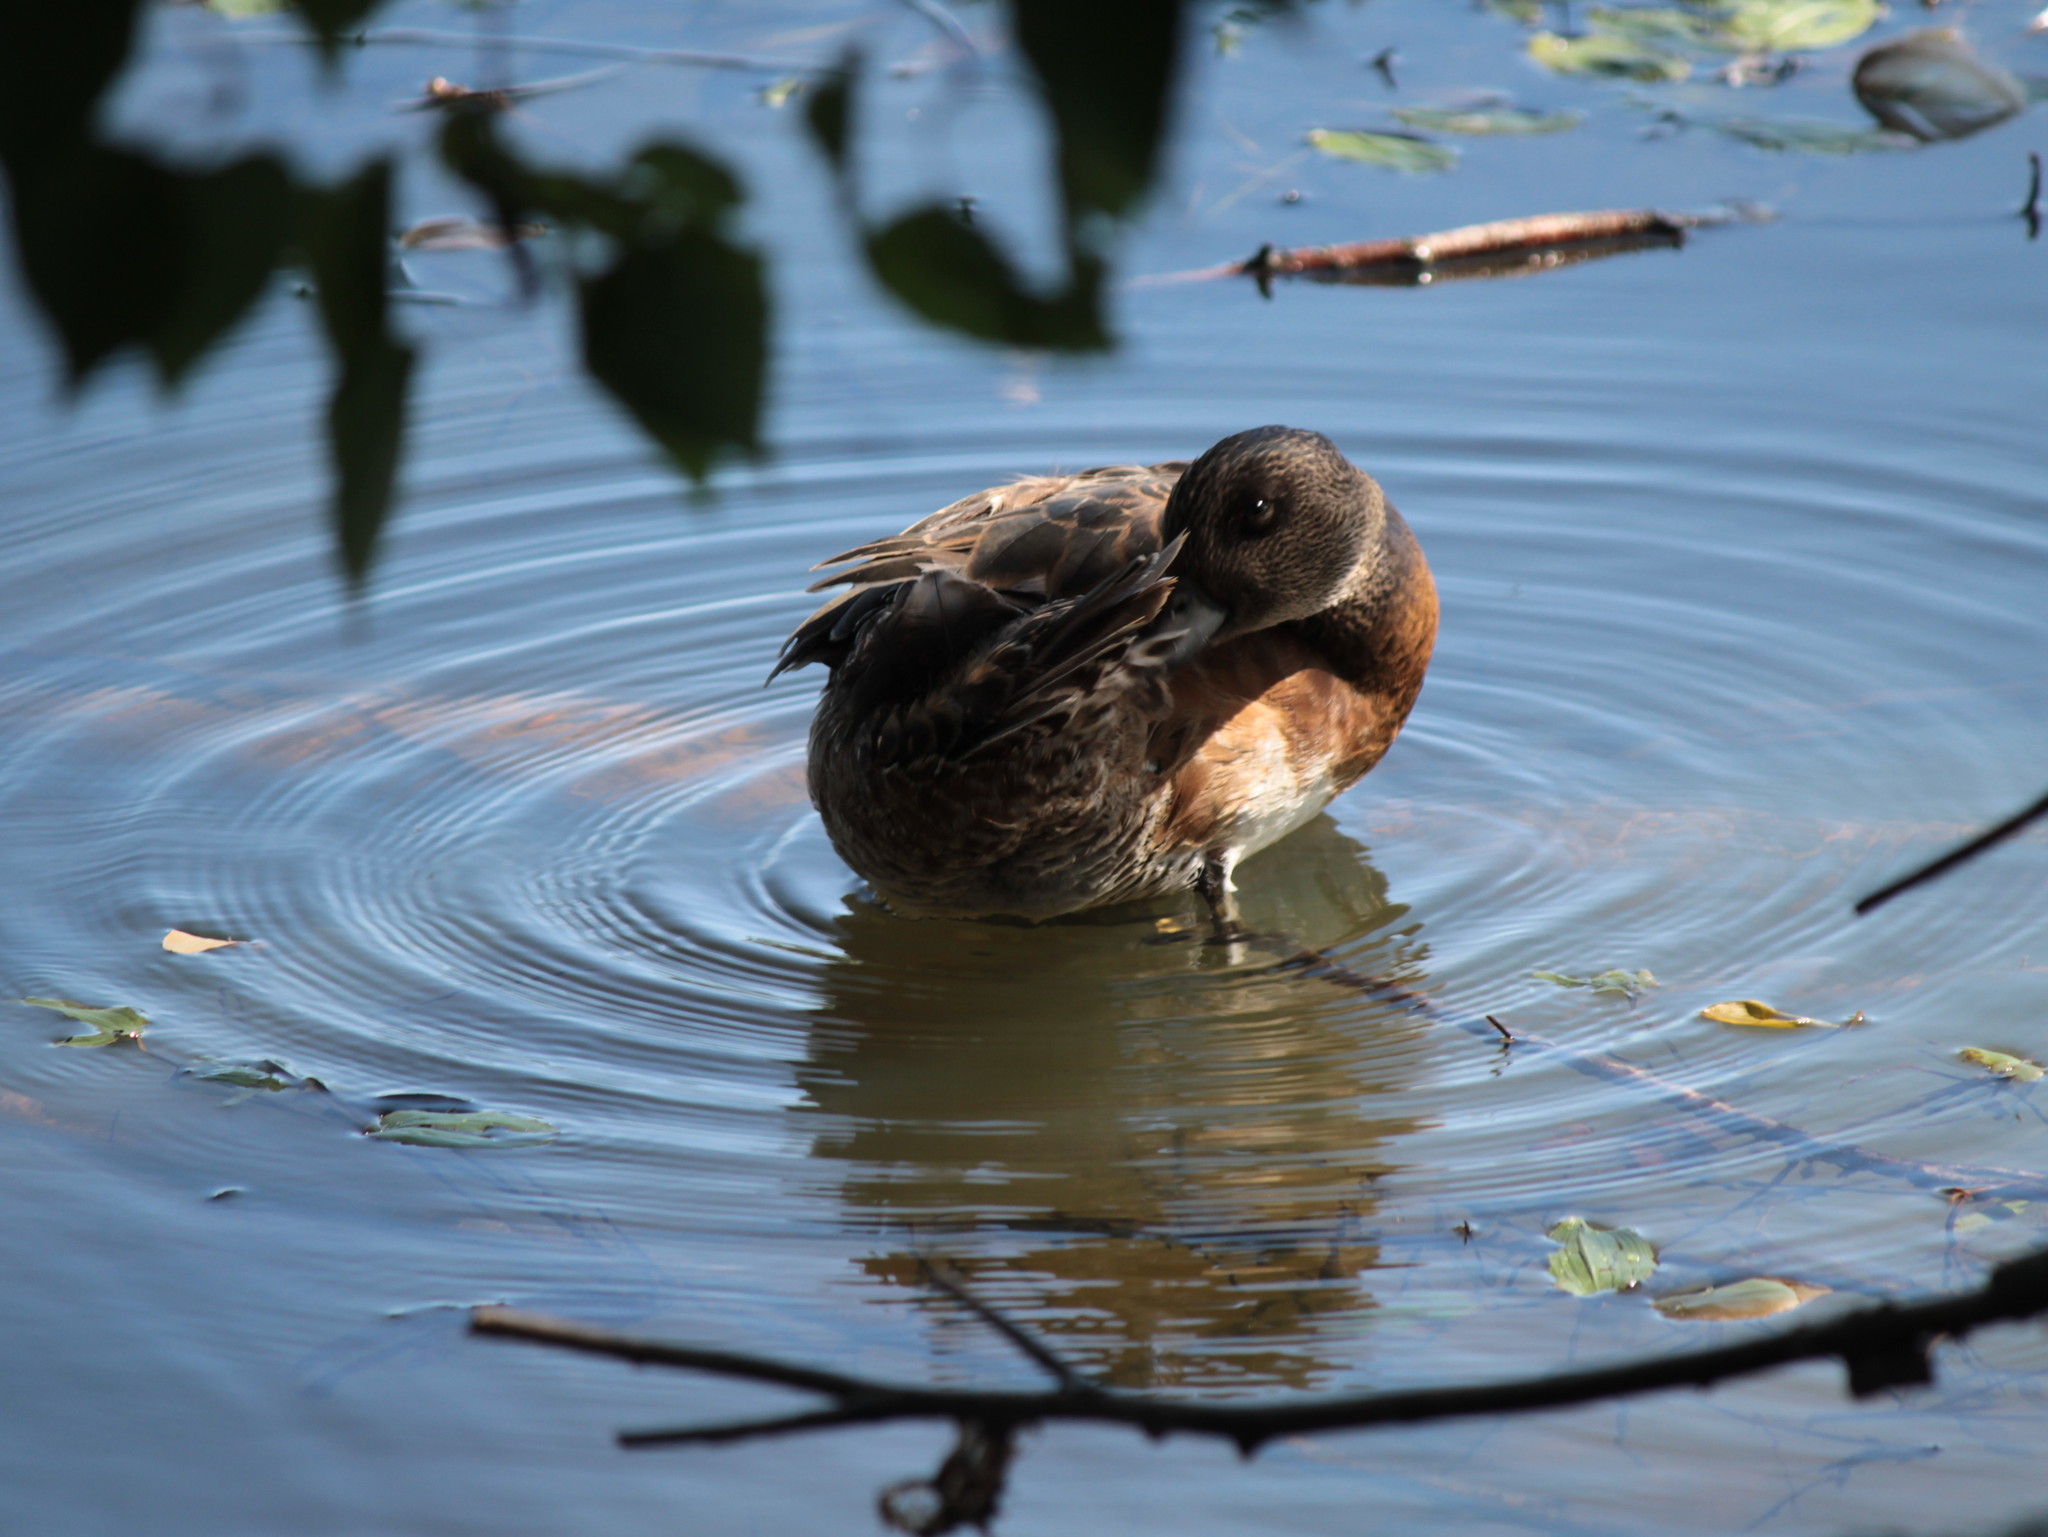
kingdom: Animalia
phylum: Chordata
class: Aves
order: Anseriformes
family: Anatidae
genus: Mareca
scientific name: Mareca americana
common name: American wigeon
